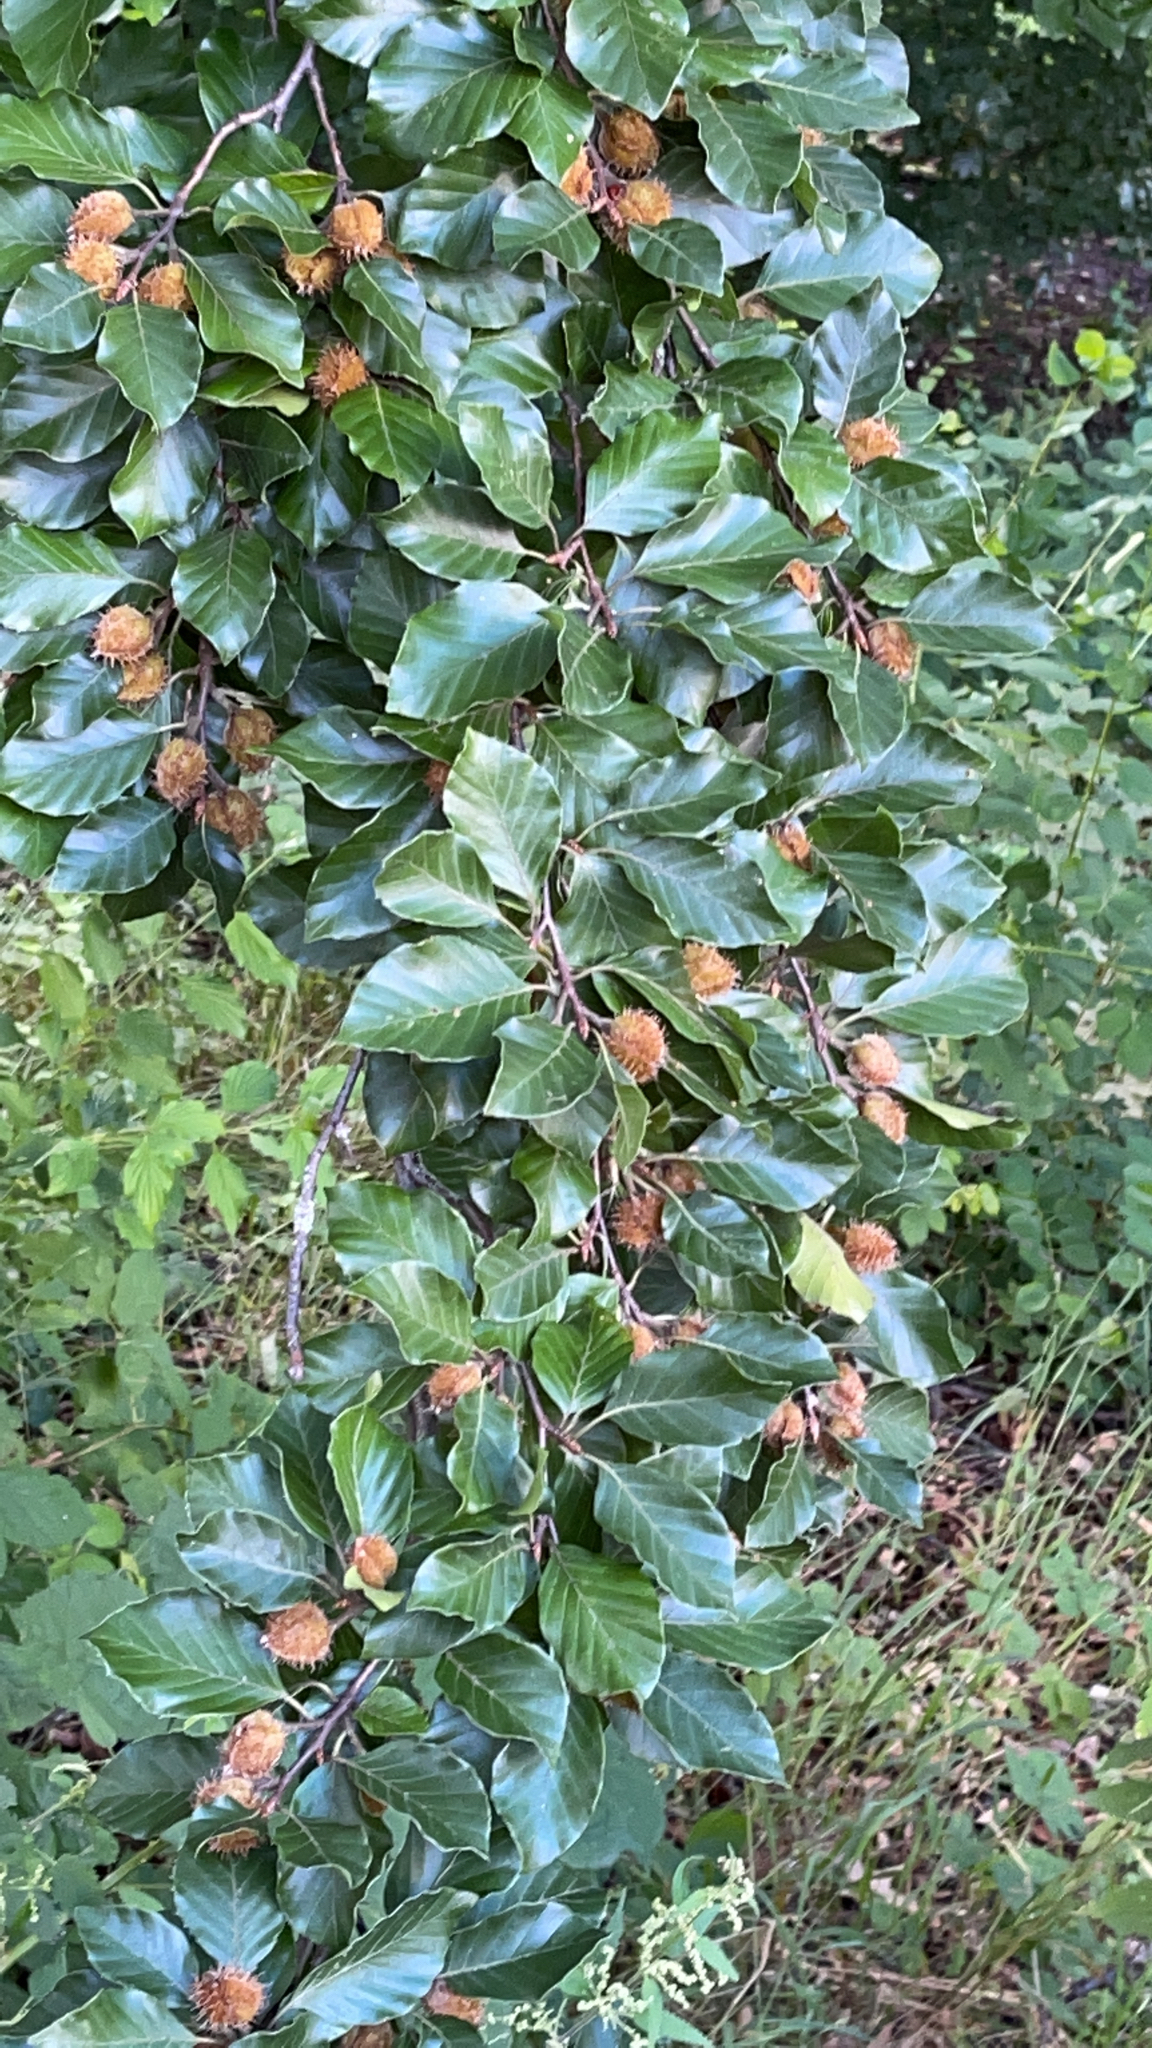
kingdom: Plantae
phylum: Tracheophyta
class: Magnoliopsida
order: Fagales
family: Fagaceae
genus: Fagus
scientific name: Fagus sylvatica
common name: Beech
